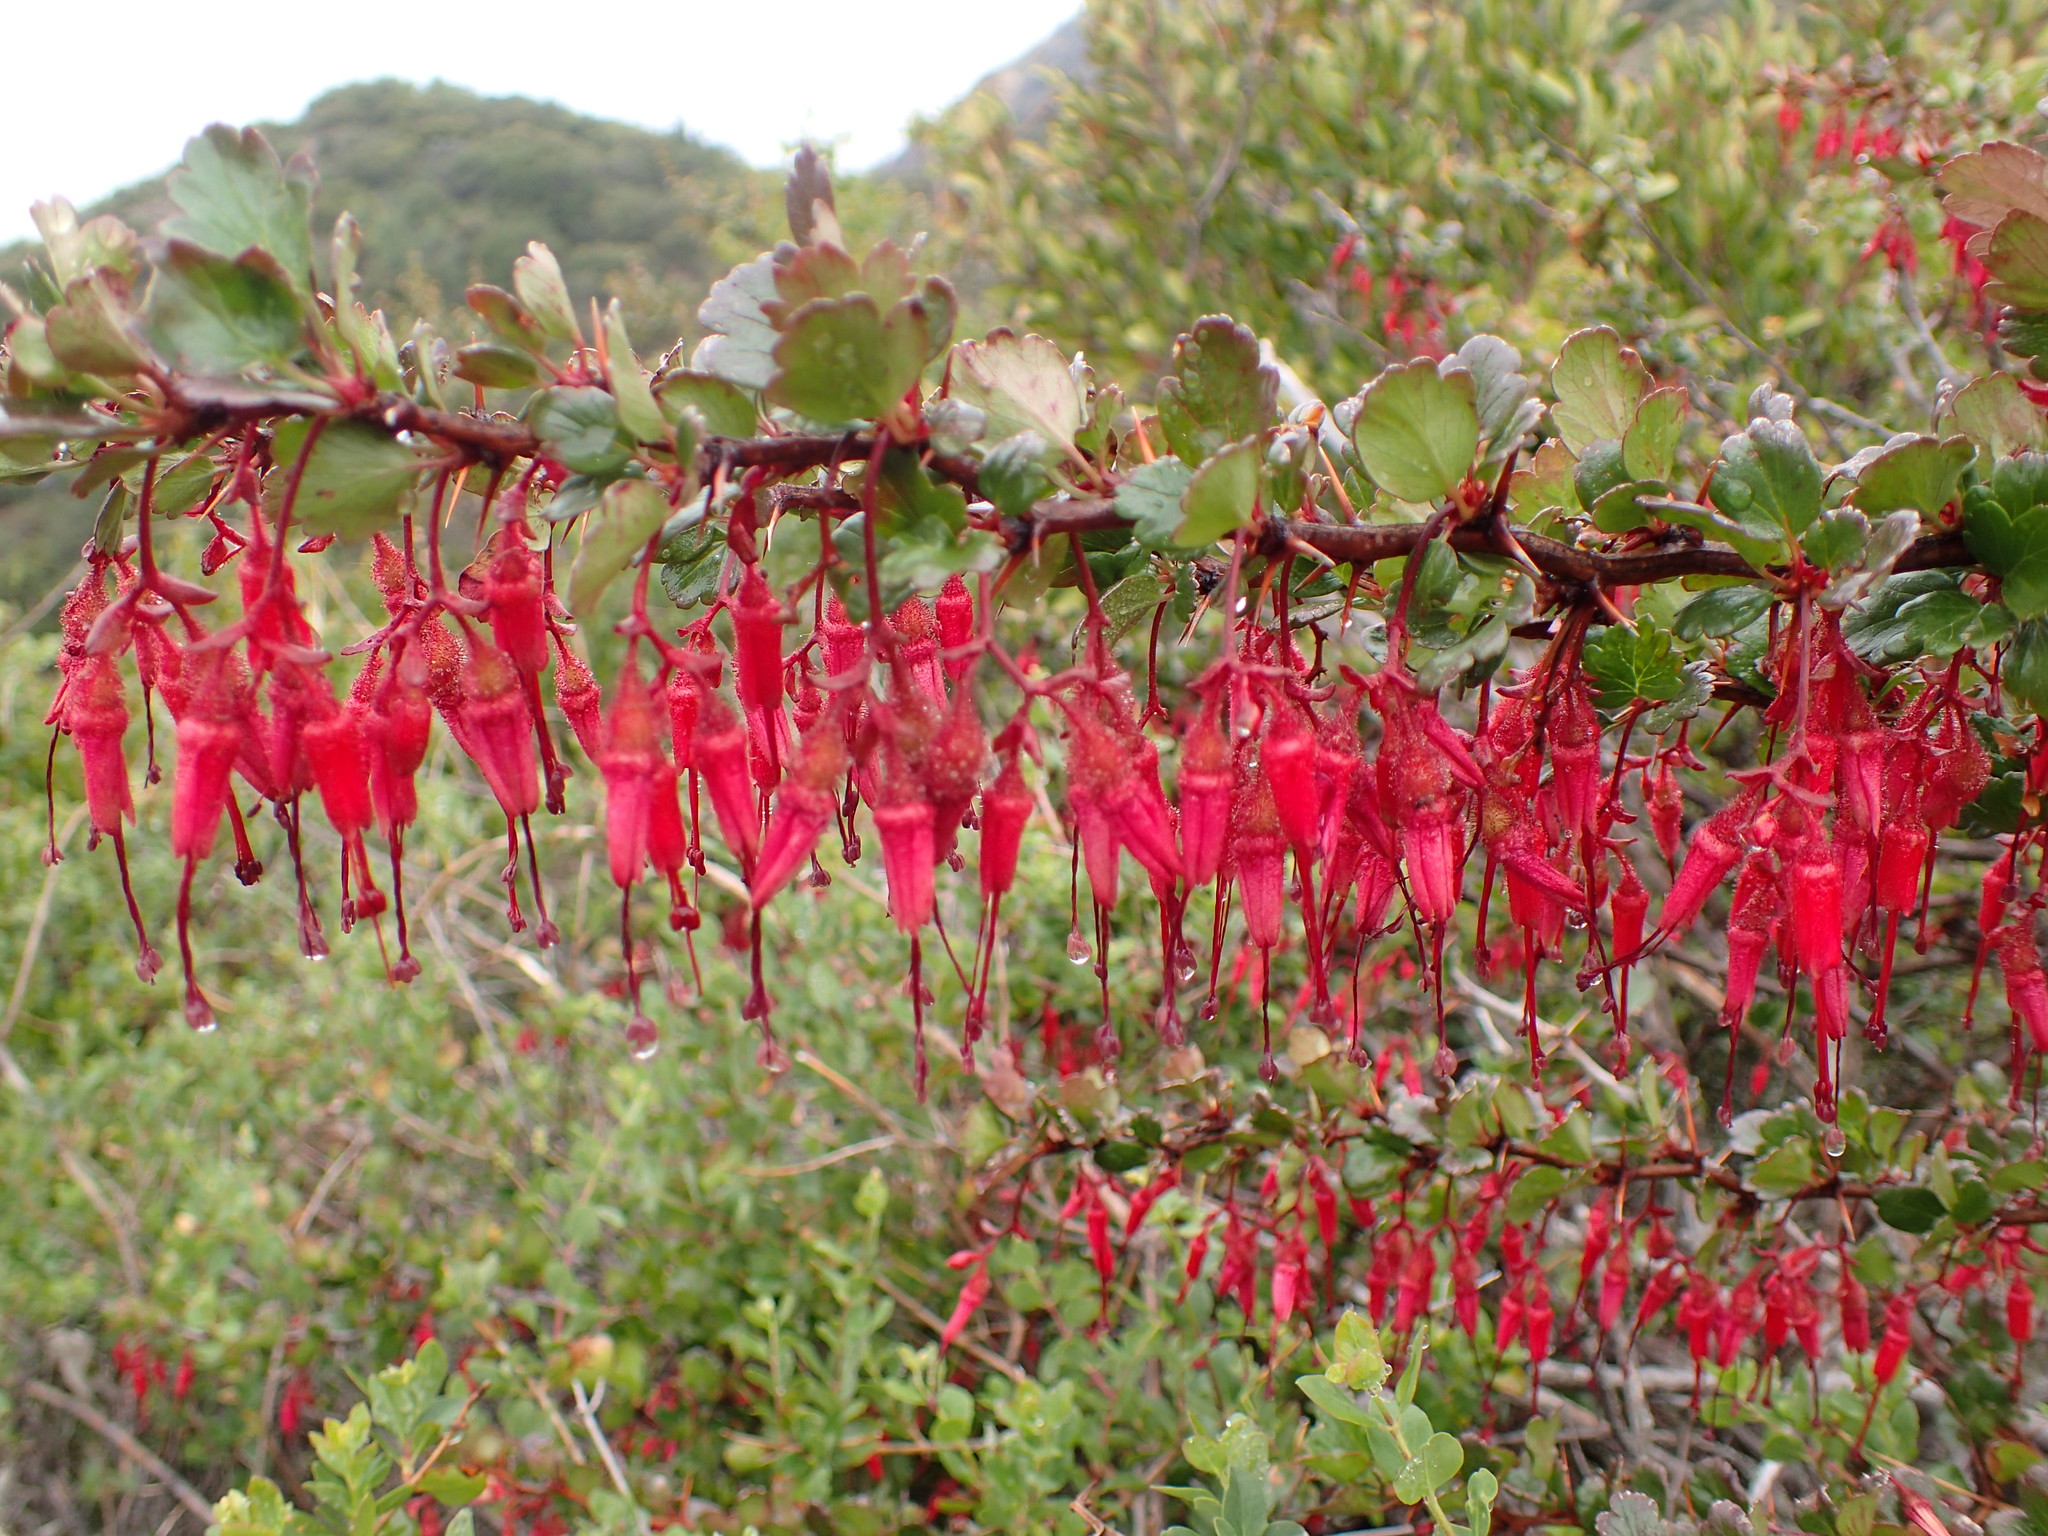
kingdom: Plantae
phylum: Tracheophyta
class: Magnoliopsida
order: Saxifragales
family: Grossulariaceae
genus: Ribes
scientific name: Ribes speciosum
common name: Fuchsia-flower gooseberry
